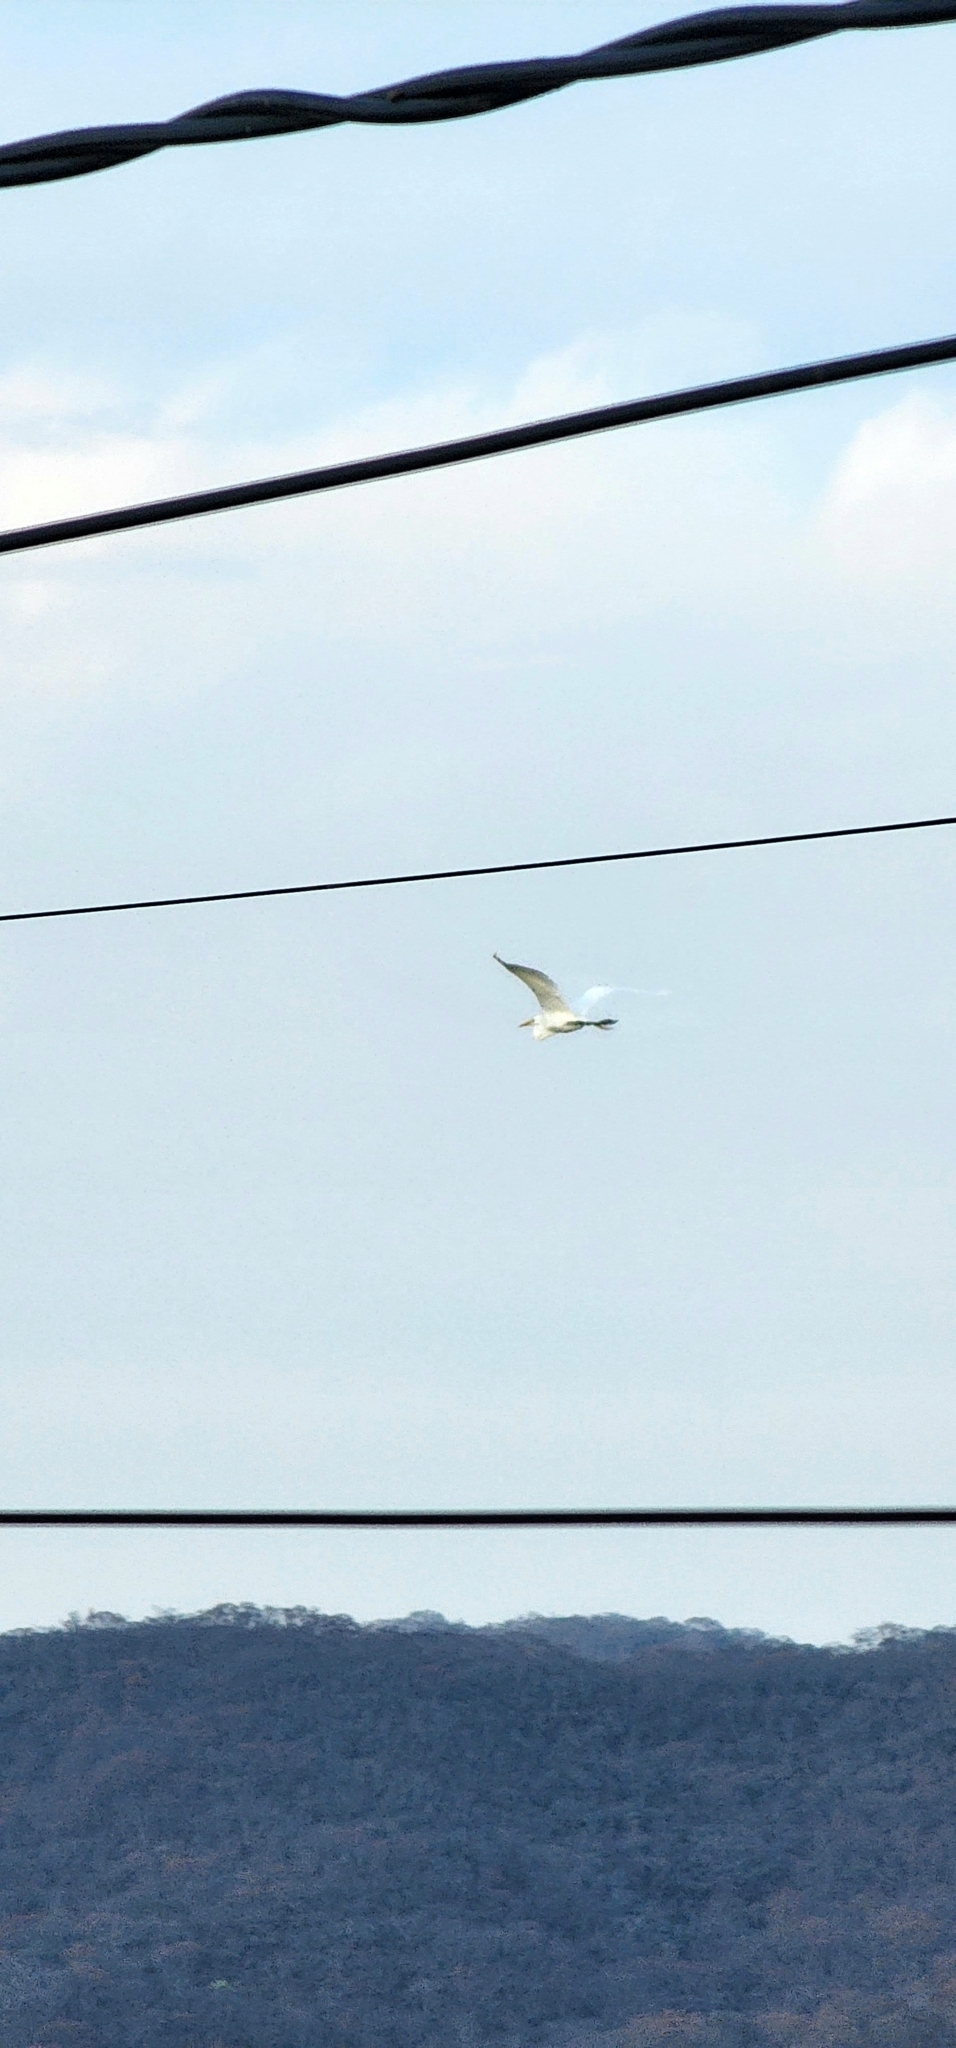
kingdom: Animalia
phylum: Chordata
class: Aves
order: Pelecaniformes
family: Ardeidae
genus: Ardea
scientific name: Ardea alba
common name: Great egret
